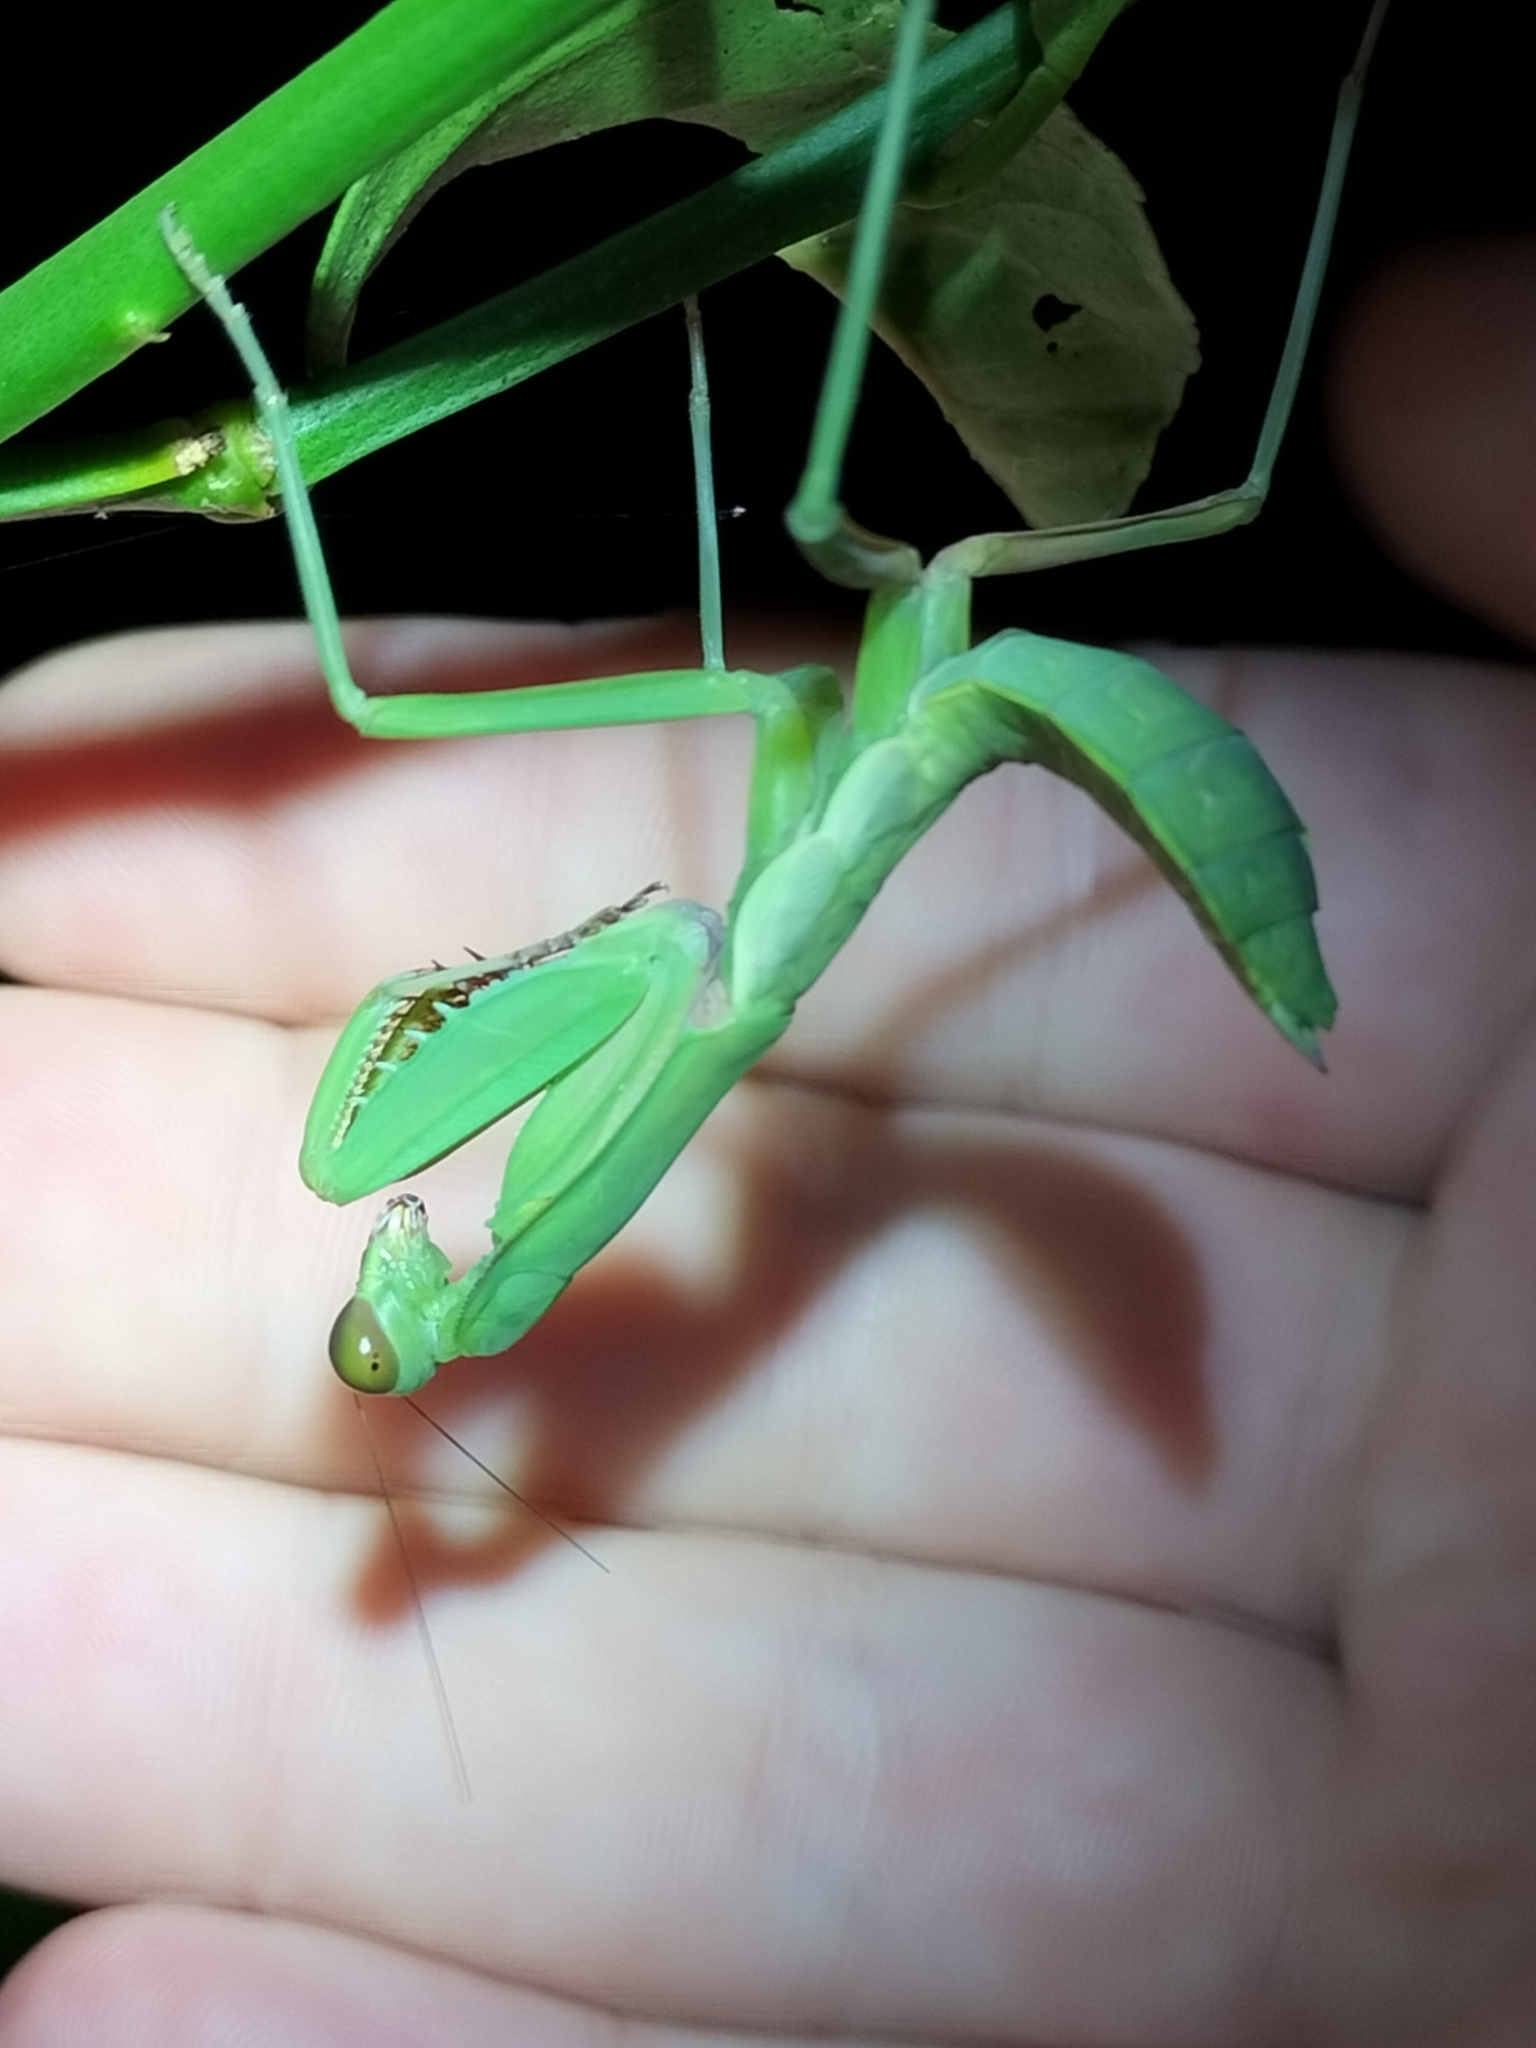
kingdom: Animalia
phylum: Arthropoda
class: Insecta
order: Mantodea
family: Mantidae
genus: Hierodula
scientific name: Hierodula majuscula
